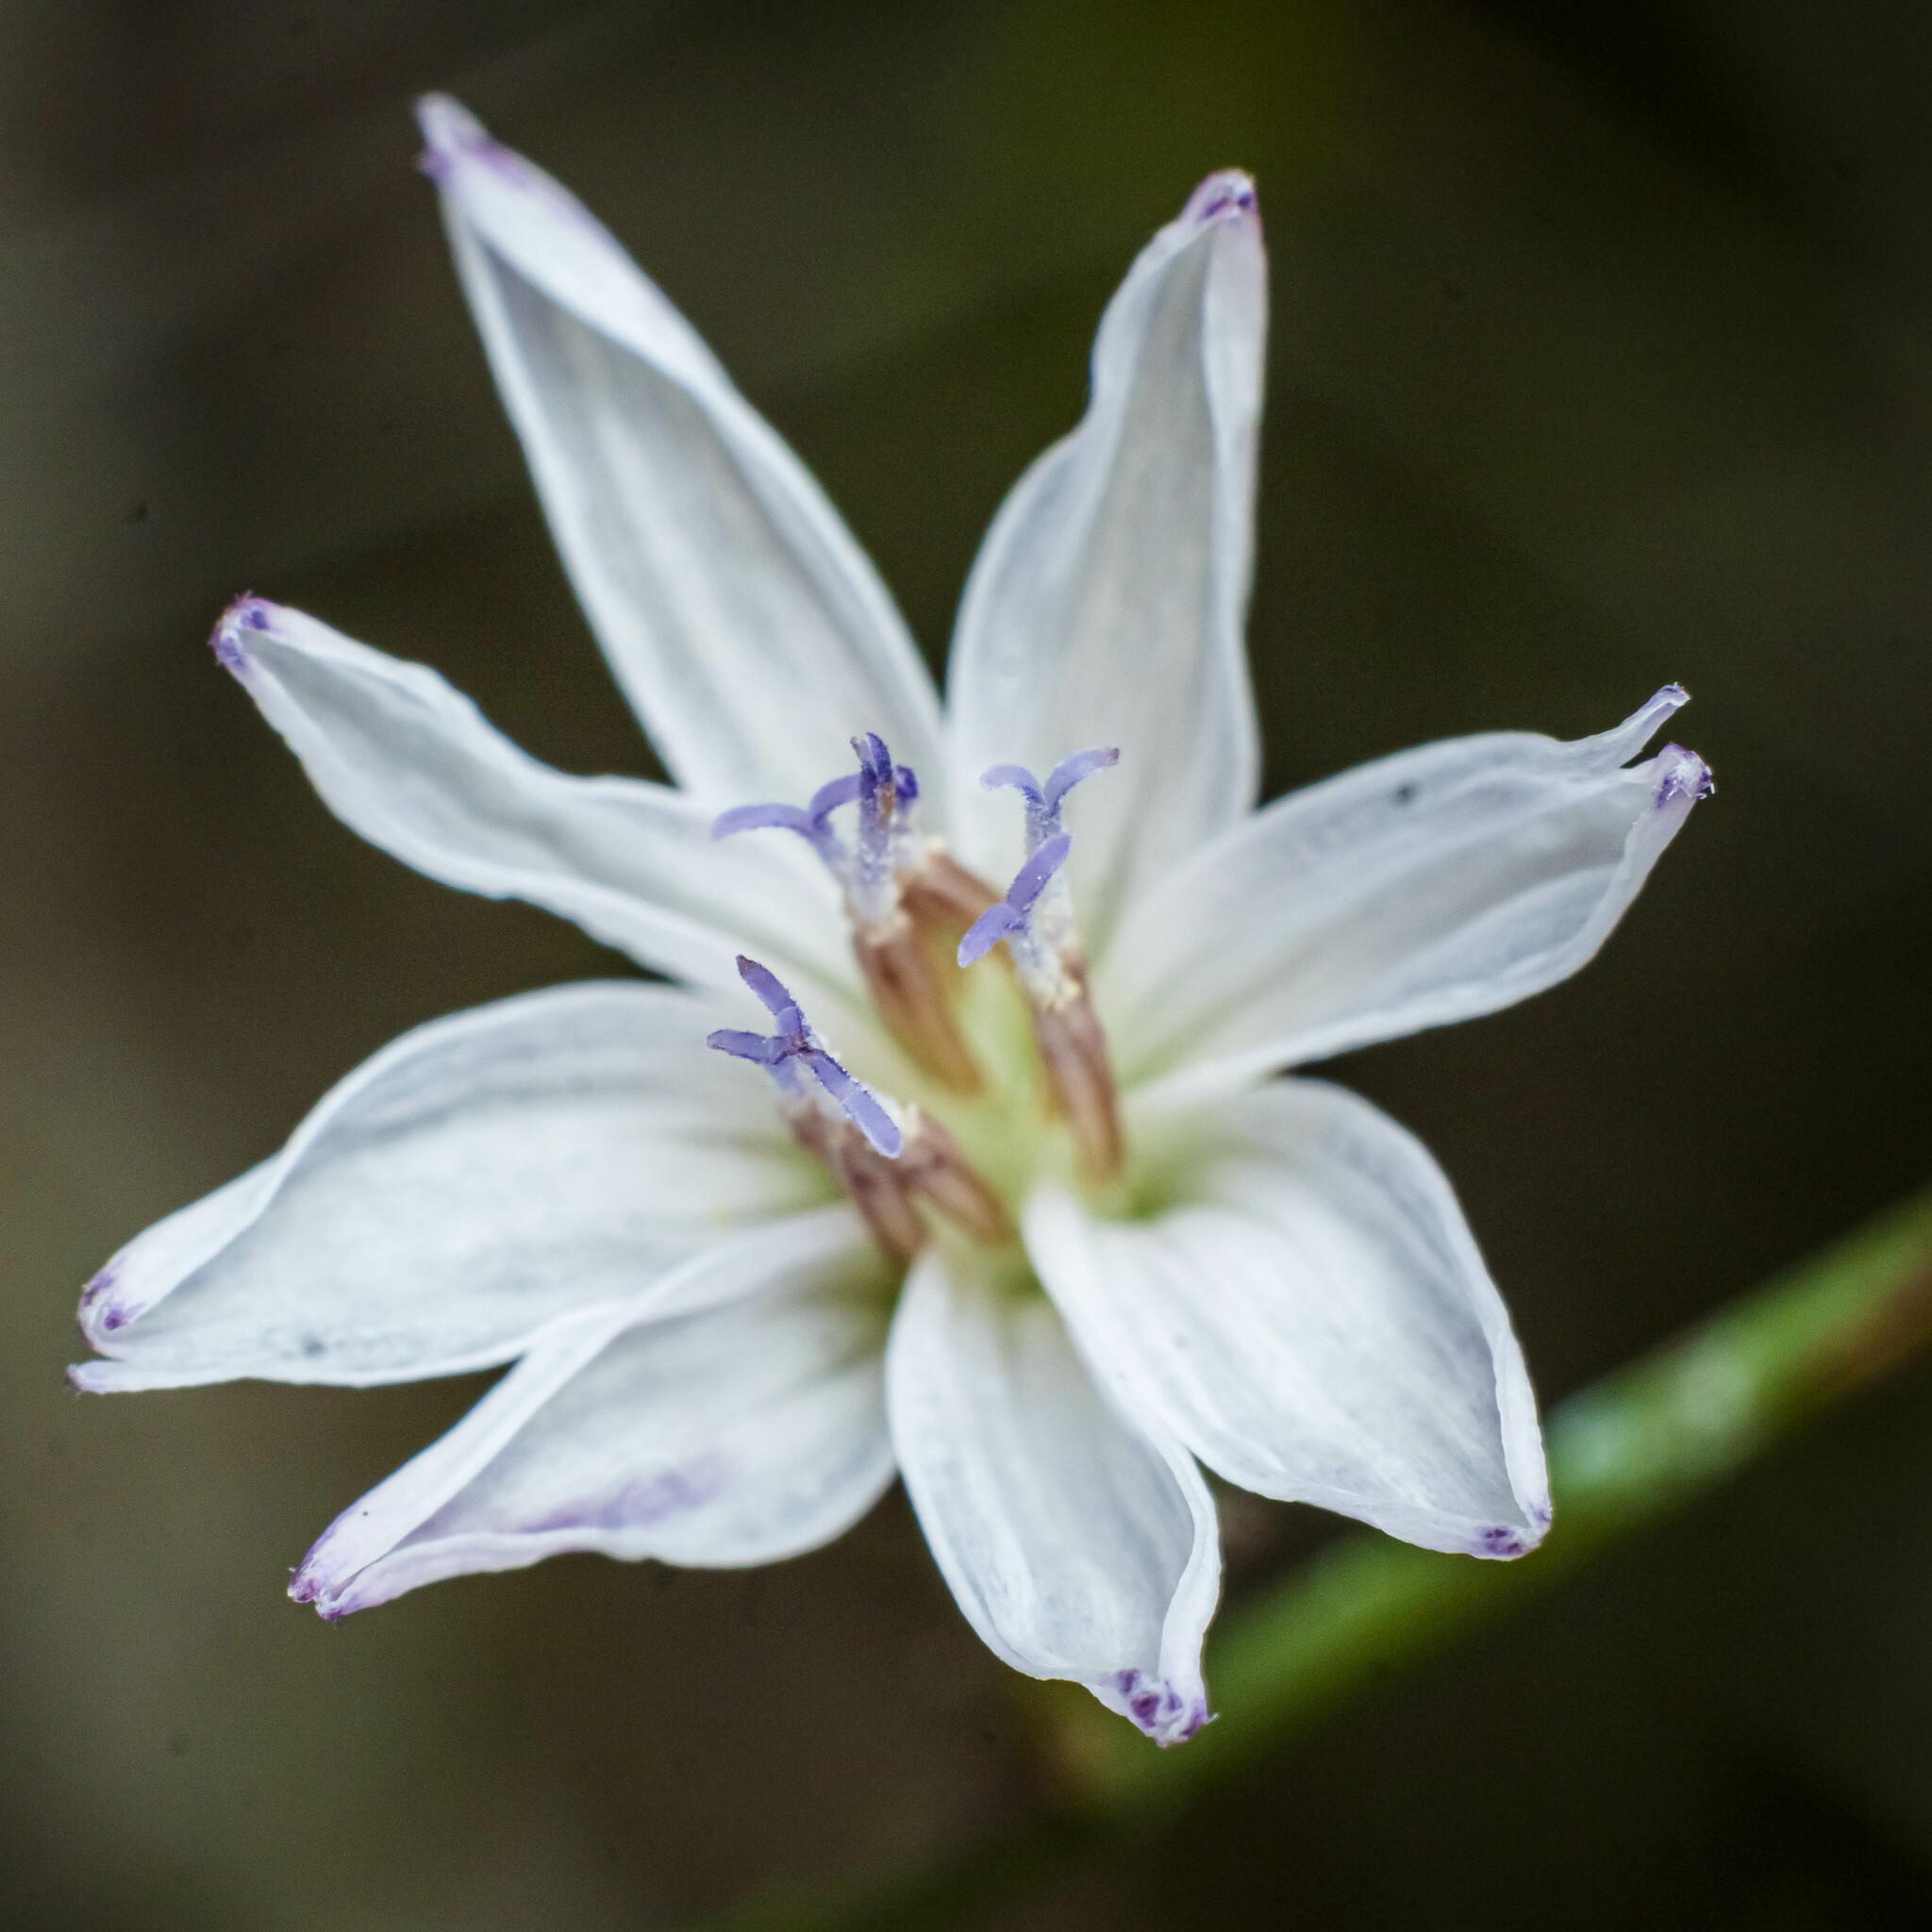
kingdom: Plantae
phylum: Tracheophyta
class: Magnoliopsida
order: Asterales
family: Asteraceae
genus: Stephanomeria
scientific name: Stephanomeria diegensis
